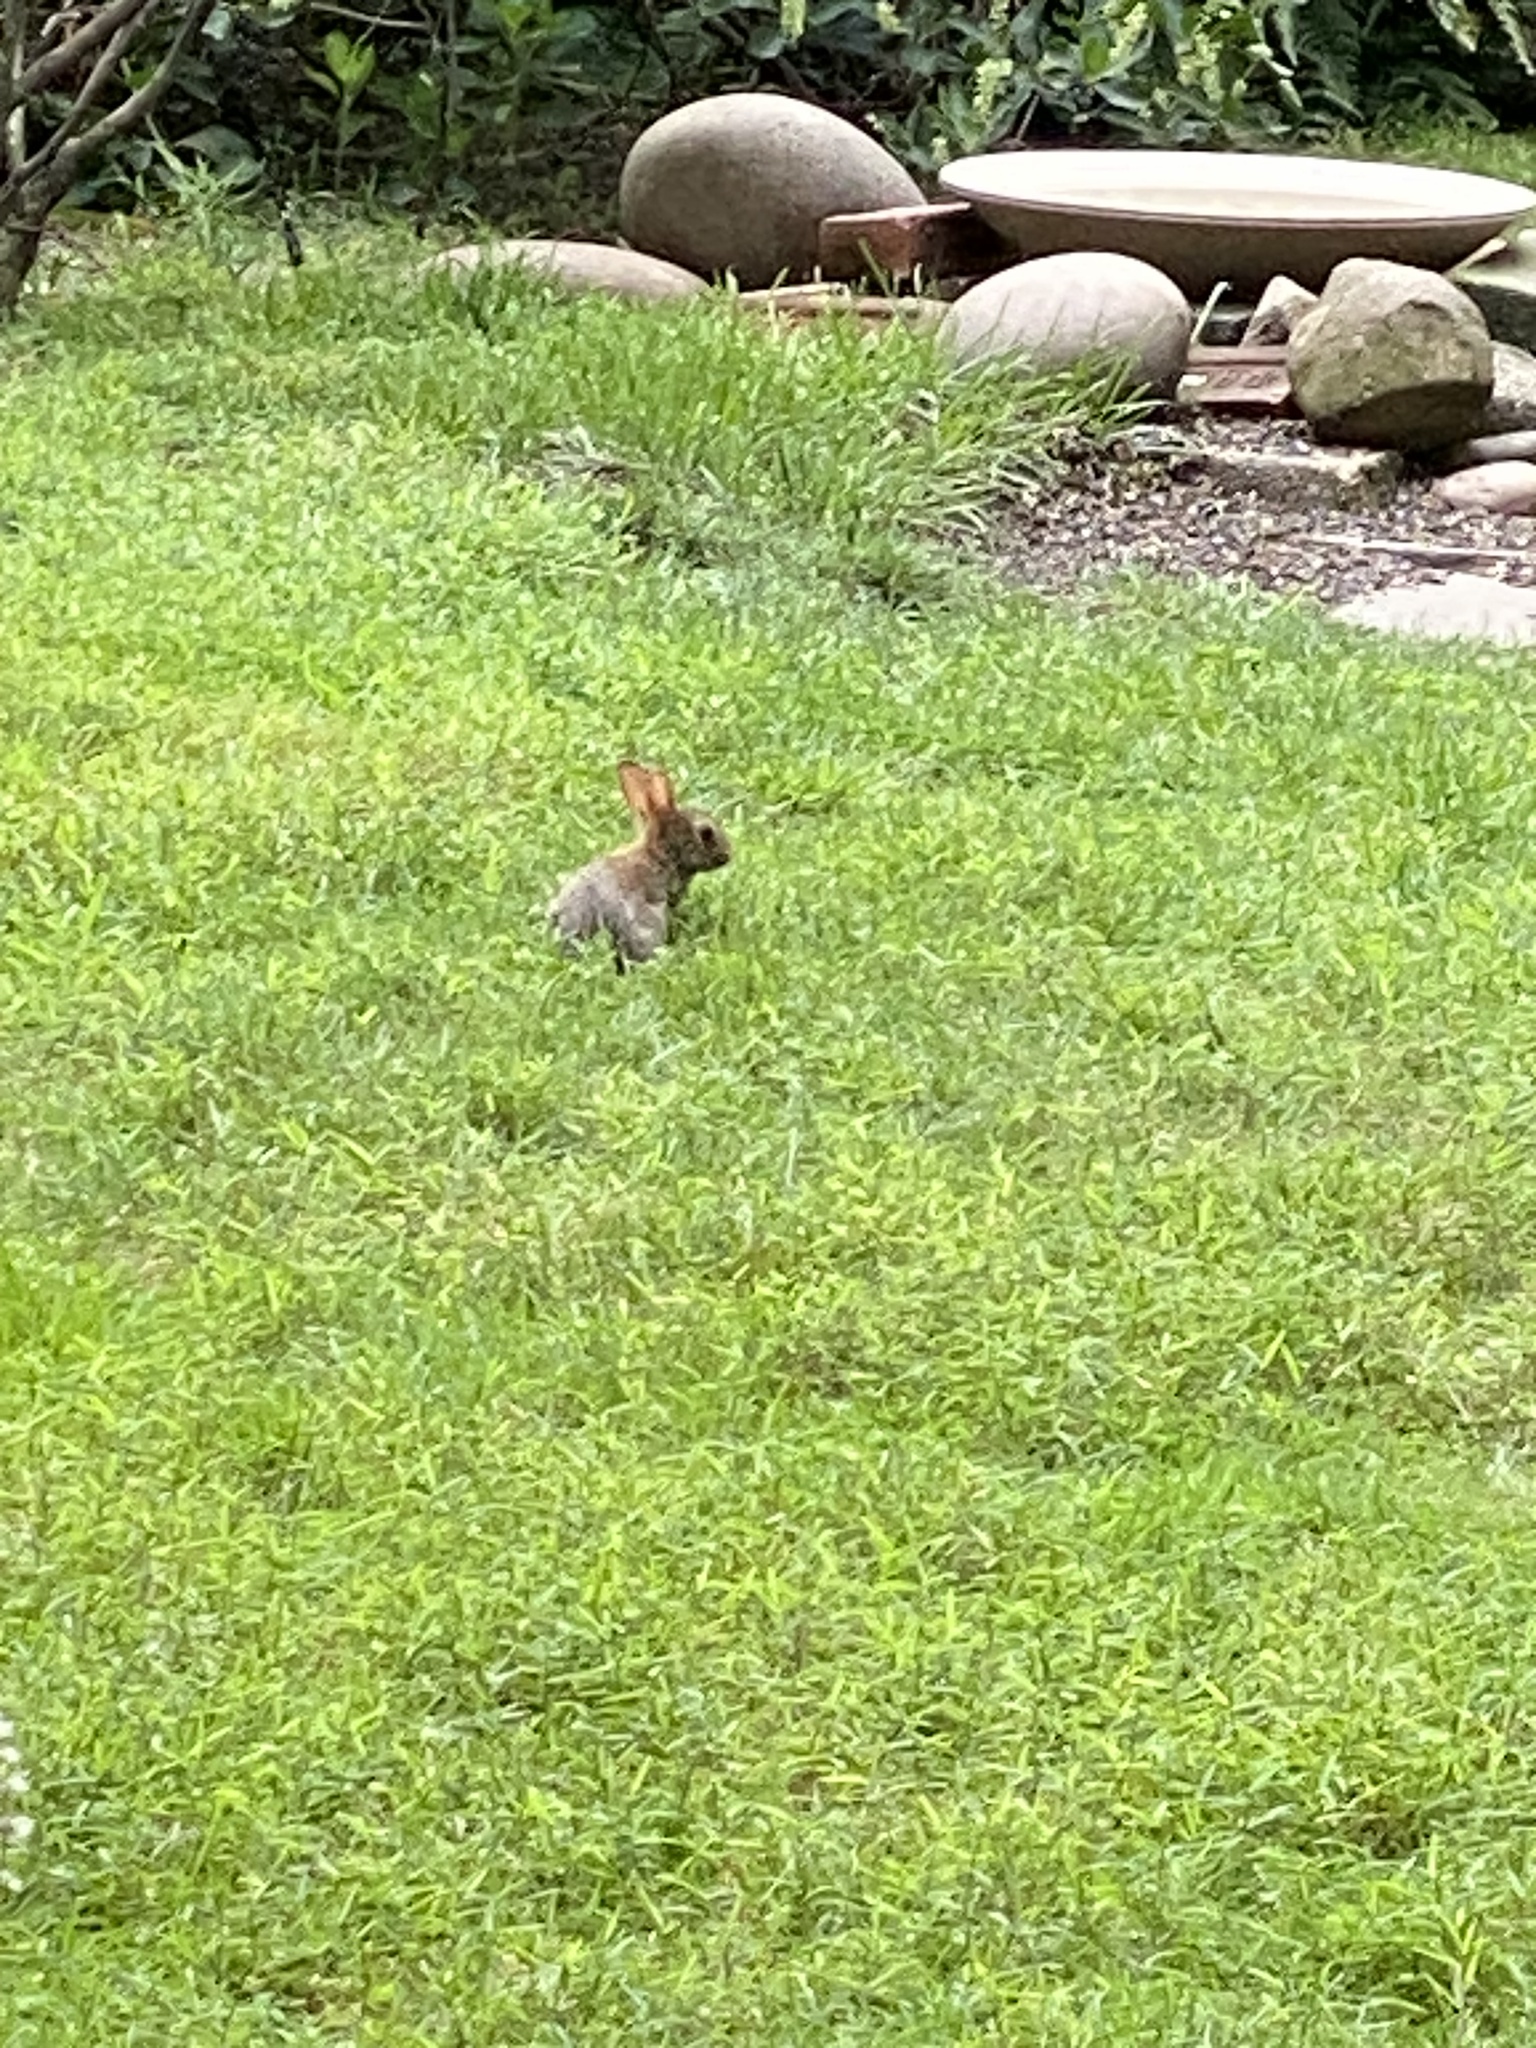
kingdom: Animalia
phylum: Chordata
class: Mammalia
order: Lagomorpha
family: Leporidae
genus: Sylvilagus
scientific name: Sylvilagus floridanus
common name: Eastern cottontail
